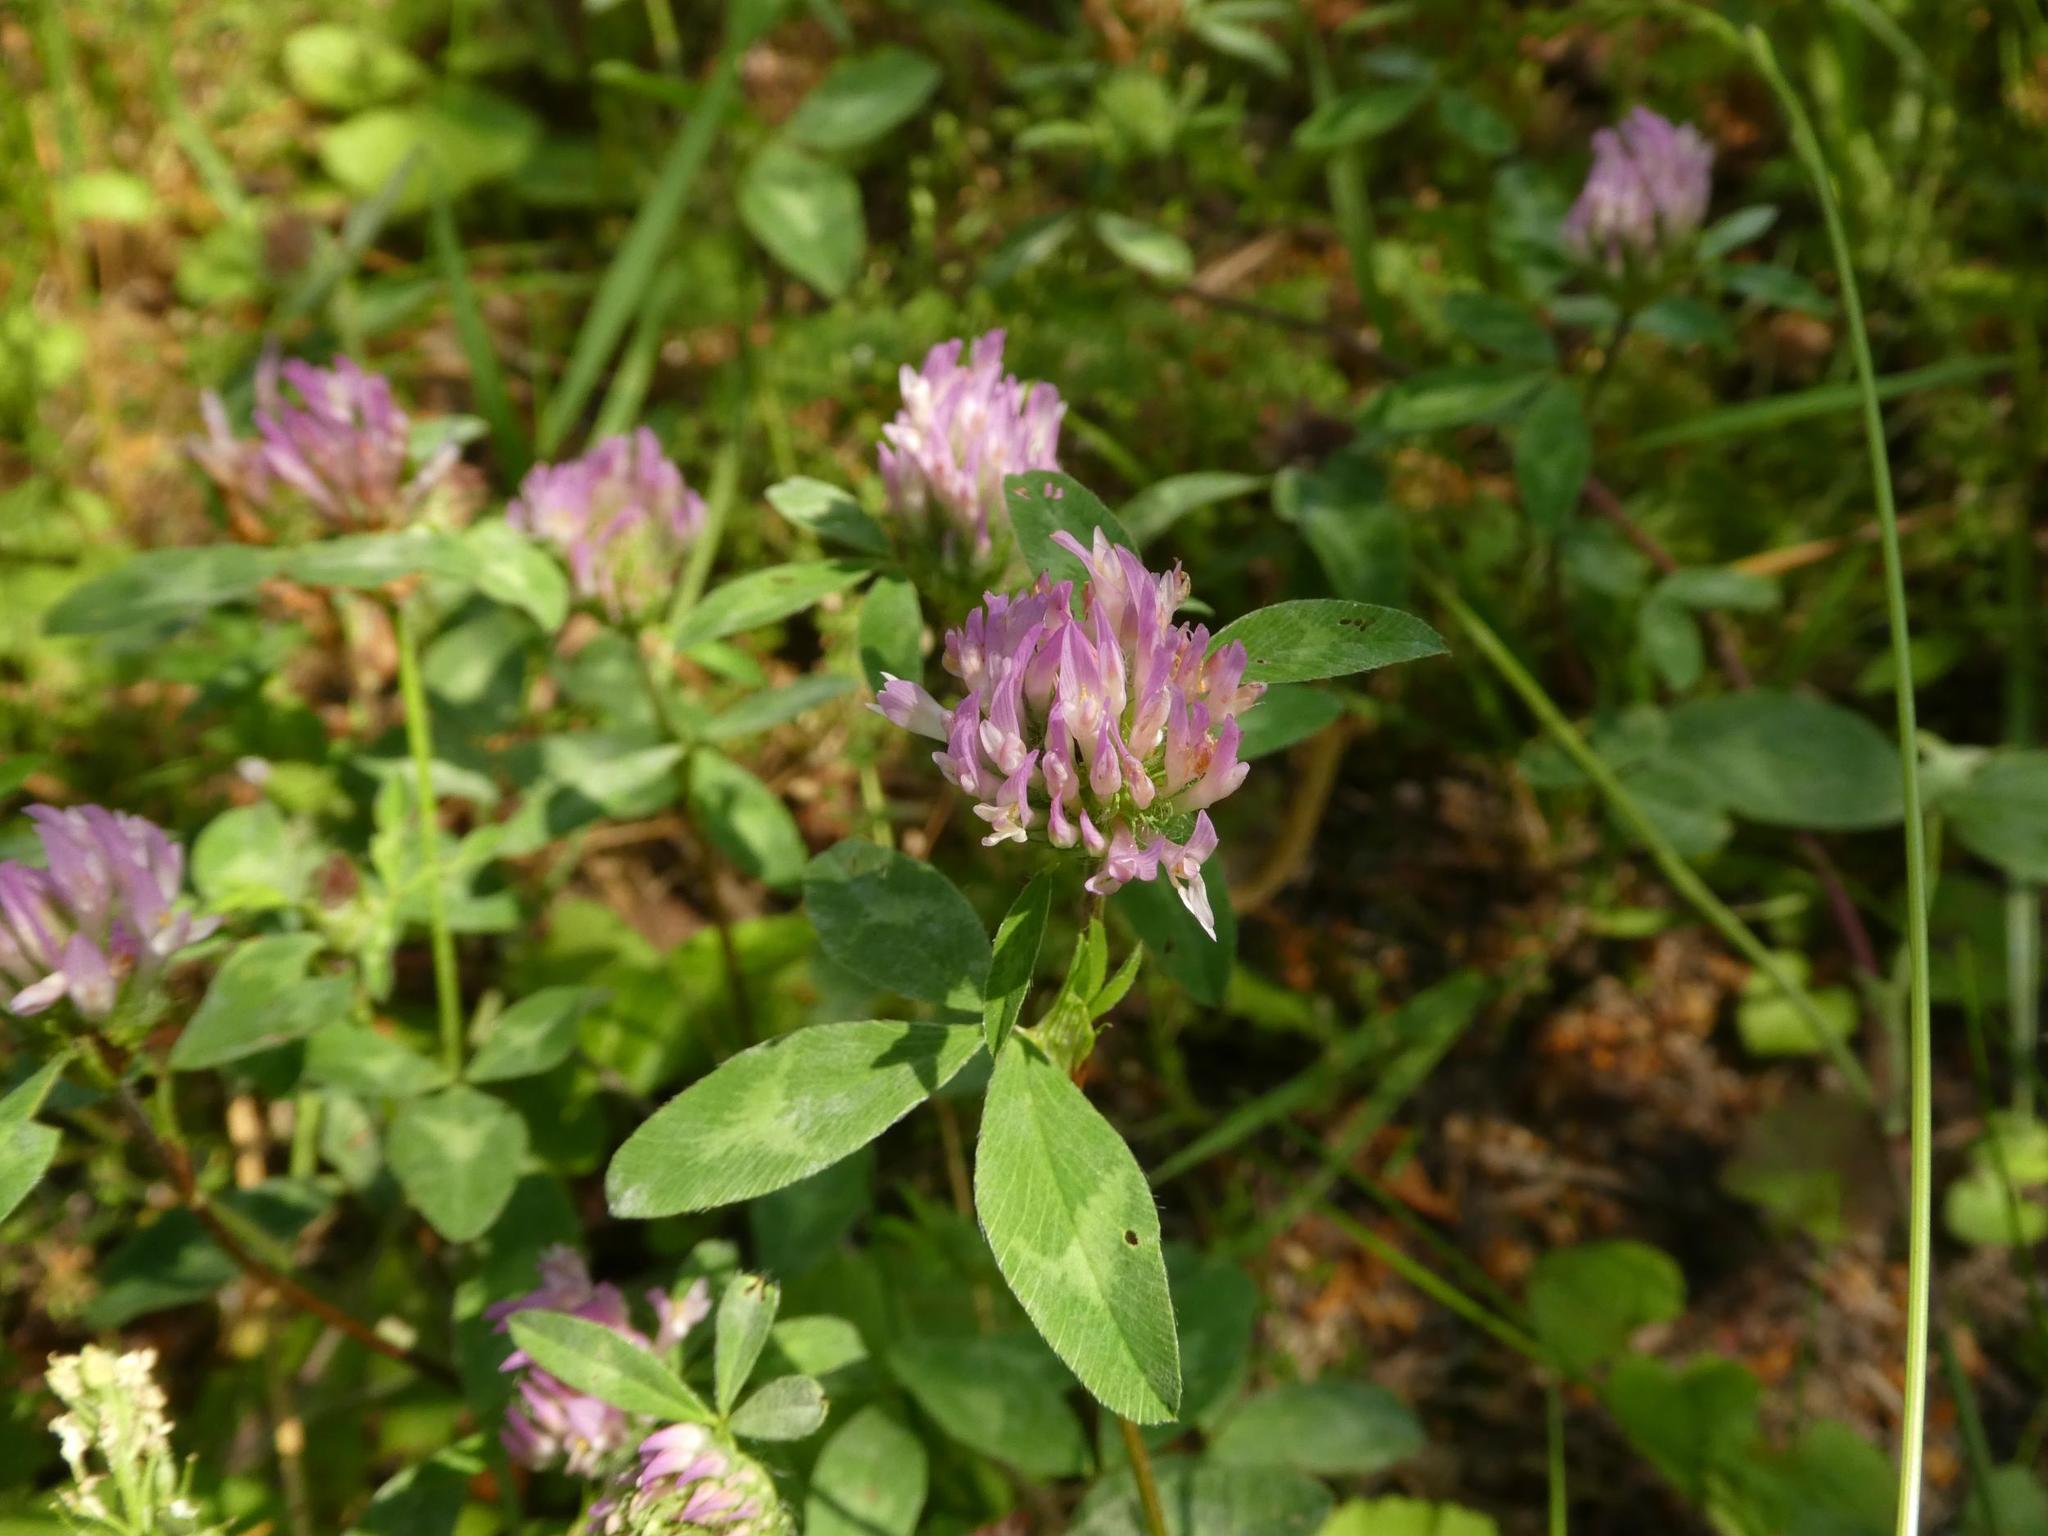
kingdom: Plantae
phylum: Tracheophyta
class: Magnoliopsida
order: Fabales
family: Fabaceae
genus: Trifolium
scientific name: Trifolium pratense
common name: Red clover
